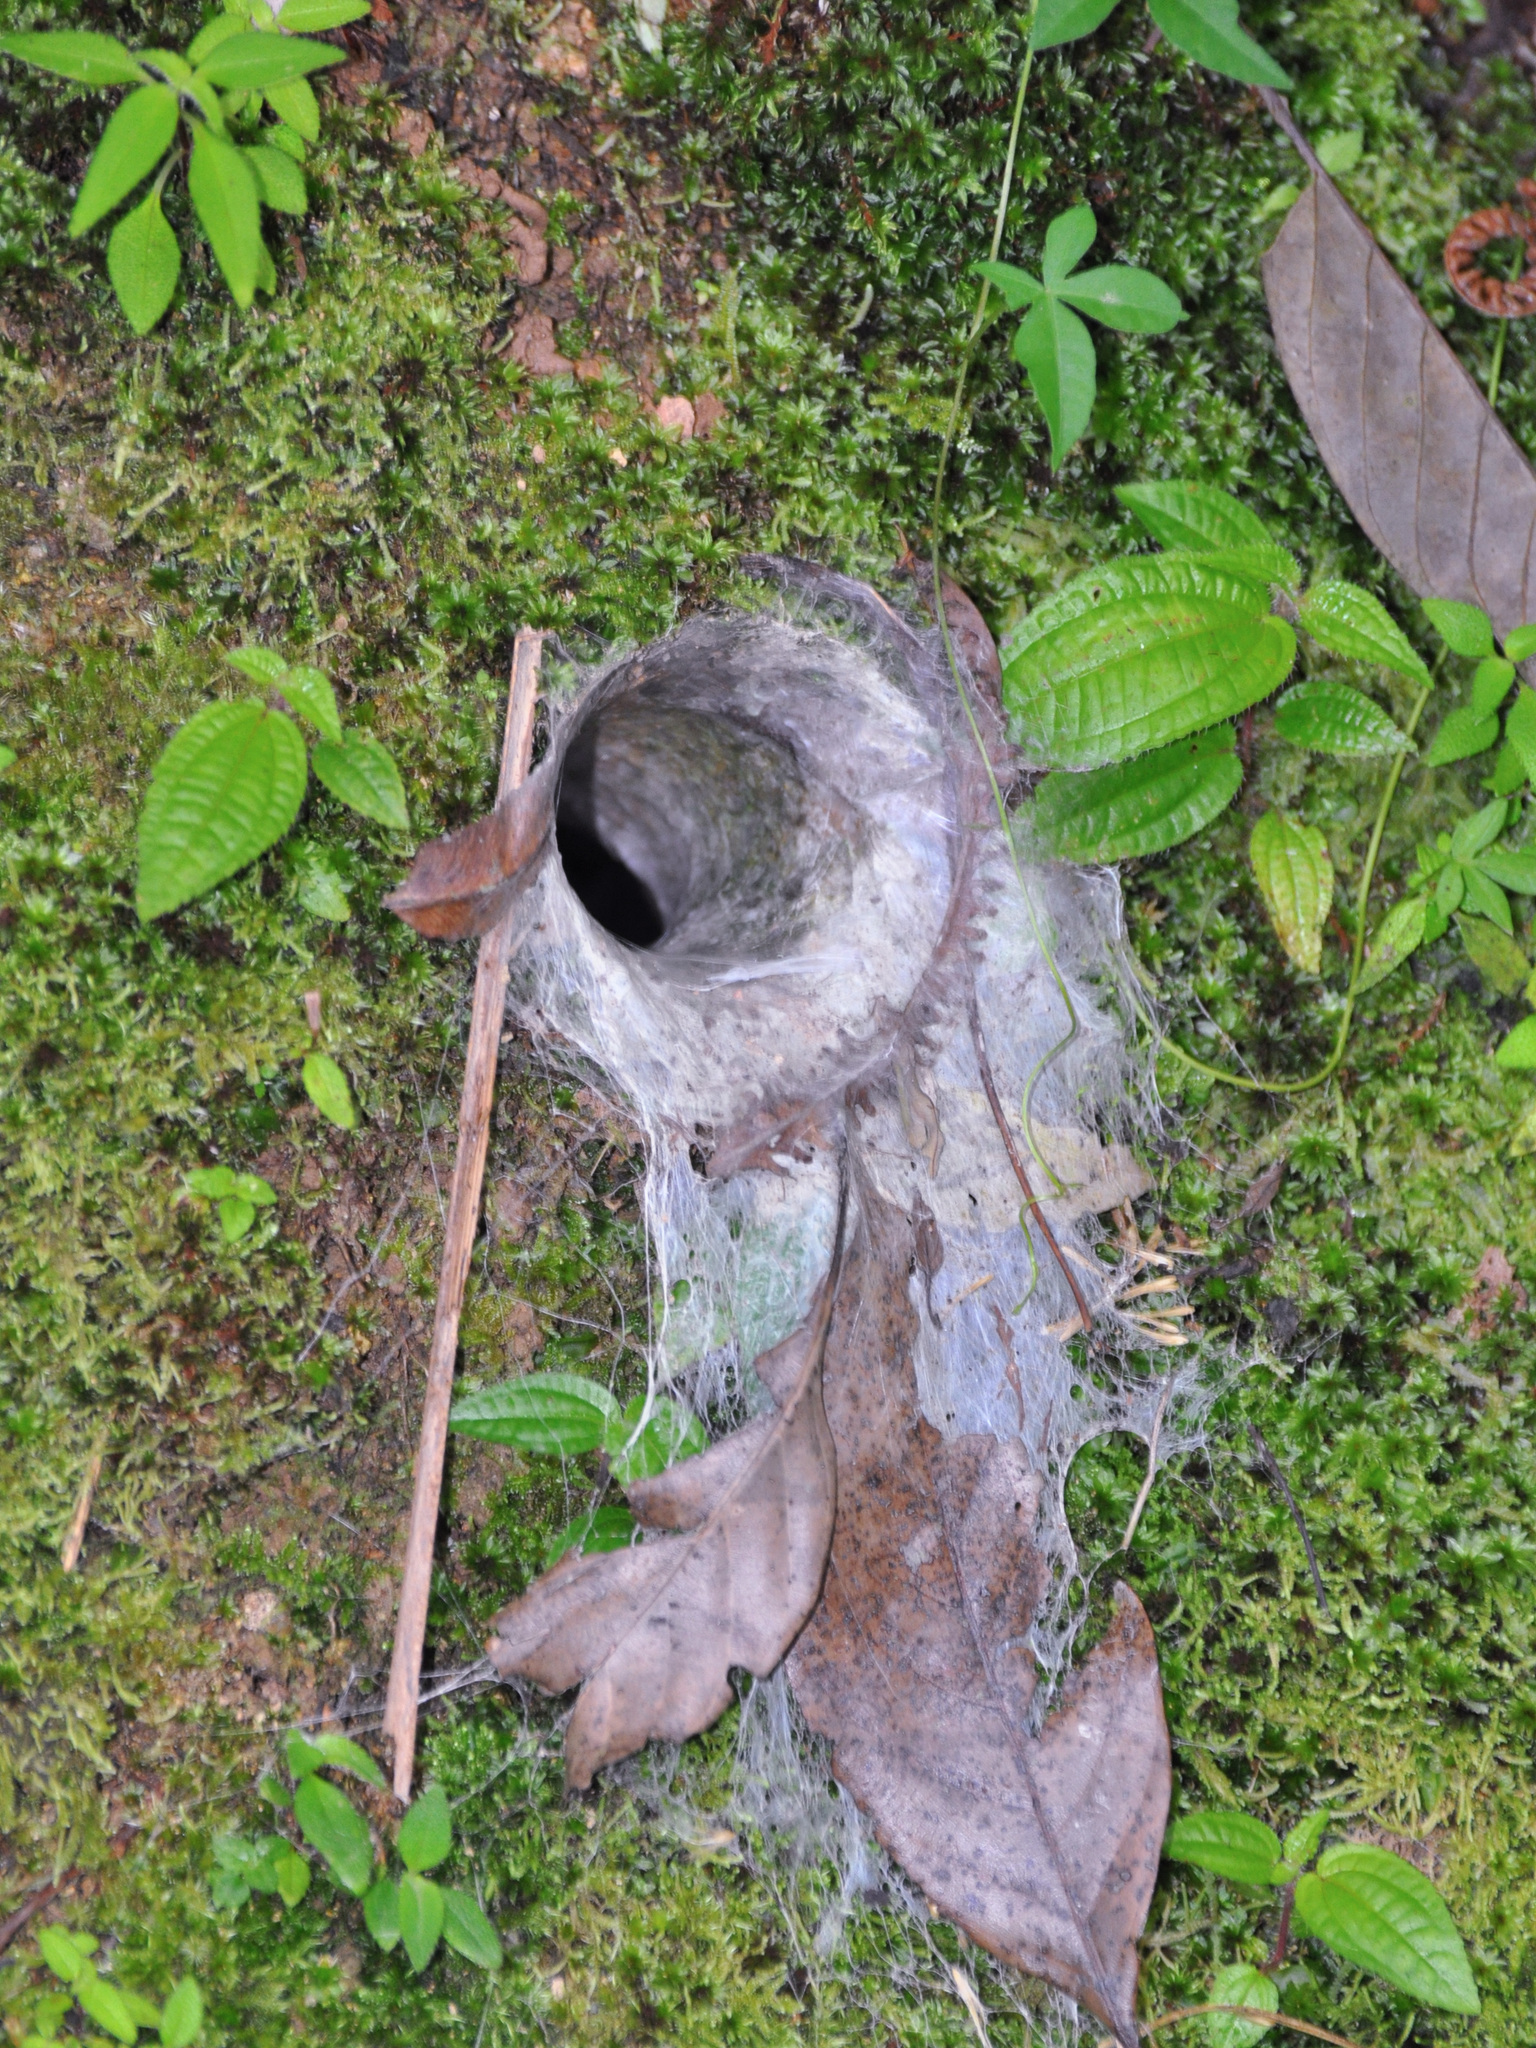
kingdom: Animalia
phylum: Arthropoda
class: Arachnida
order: Araneae
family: Theraphosidae
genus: Coremiocnemis
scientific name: Coremiocnemis hoggi
